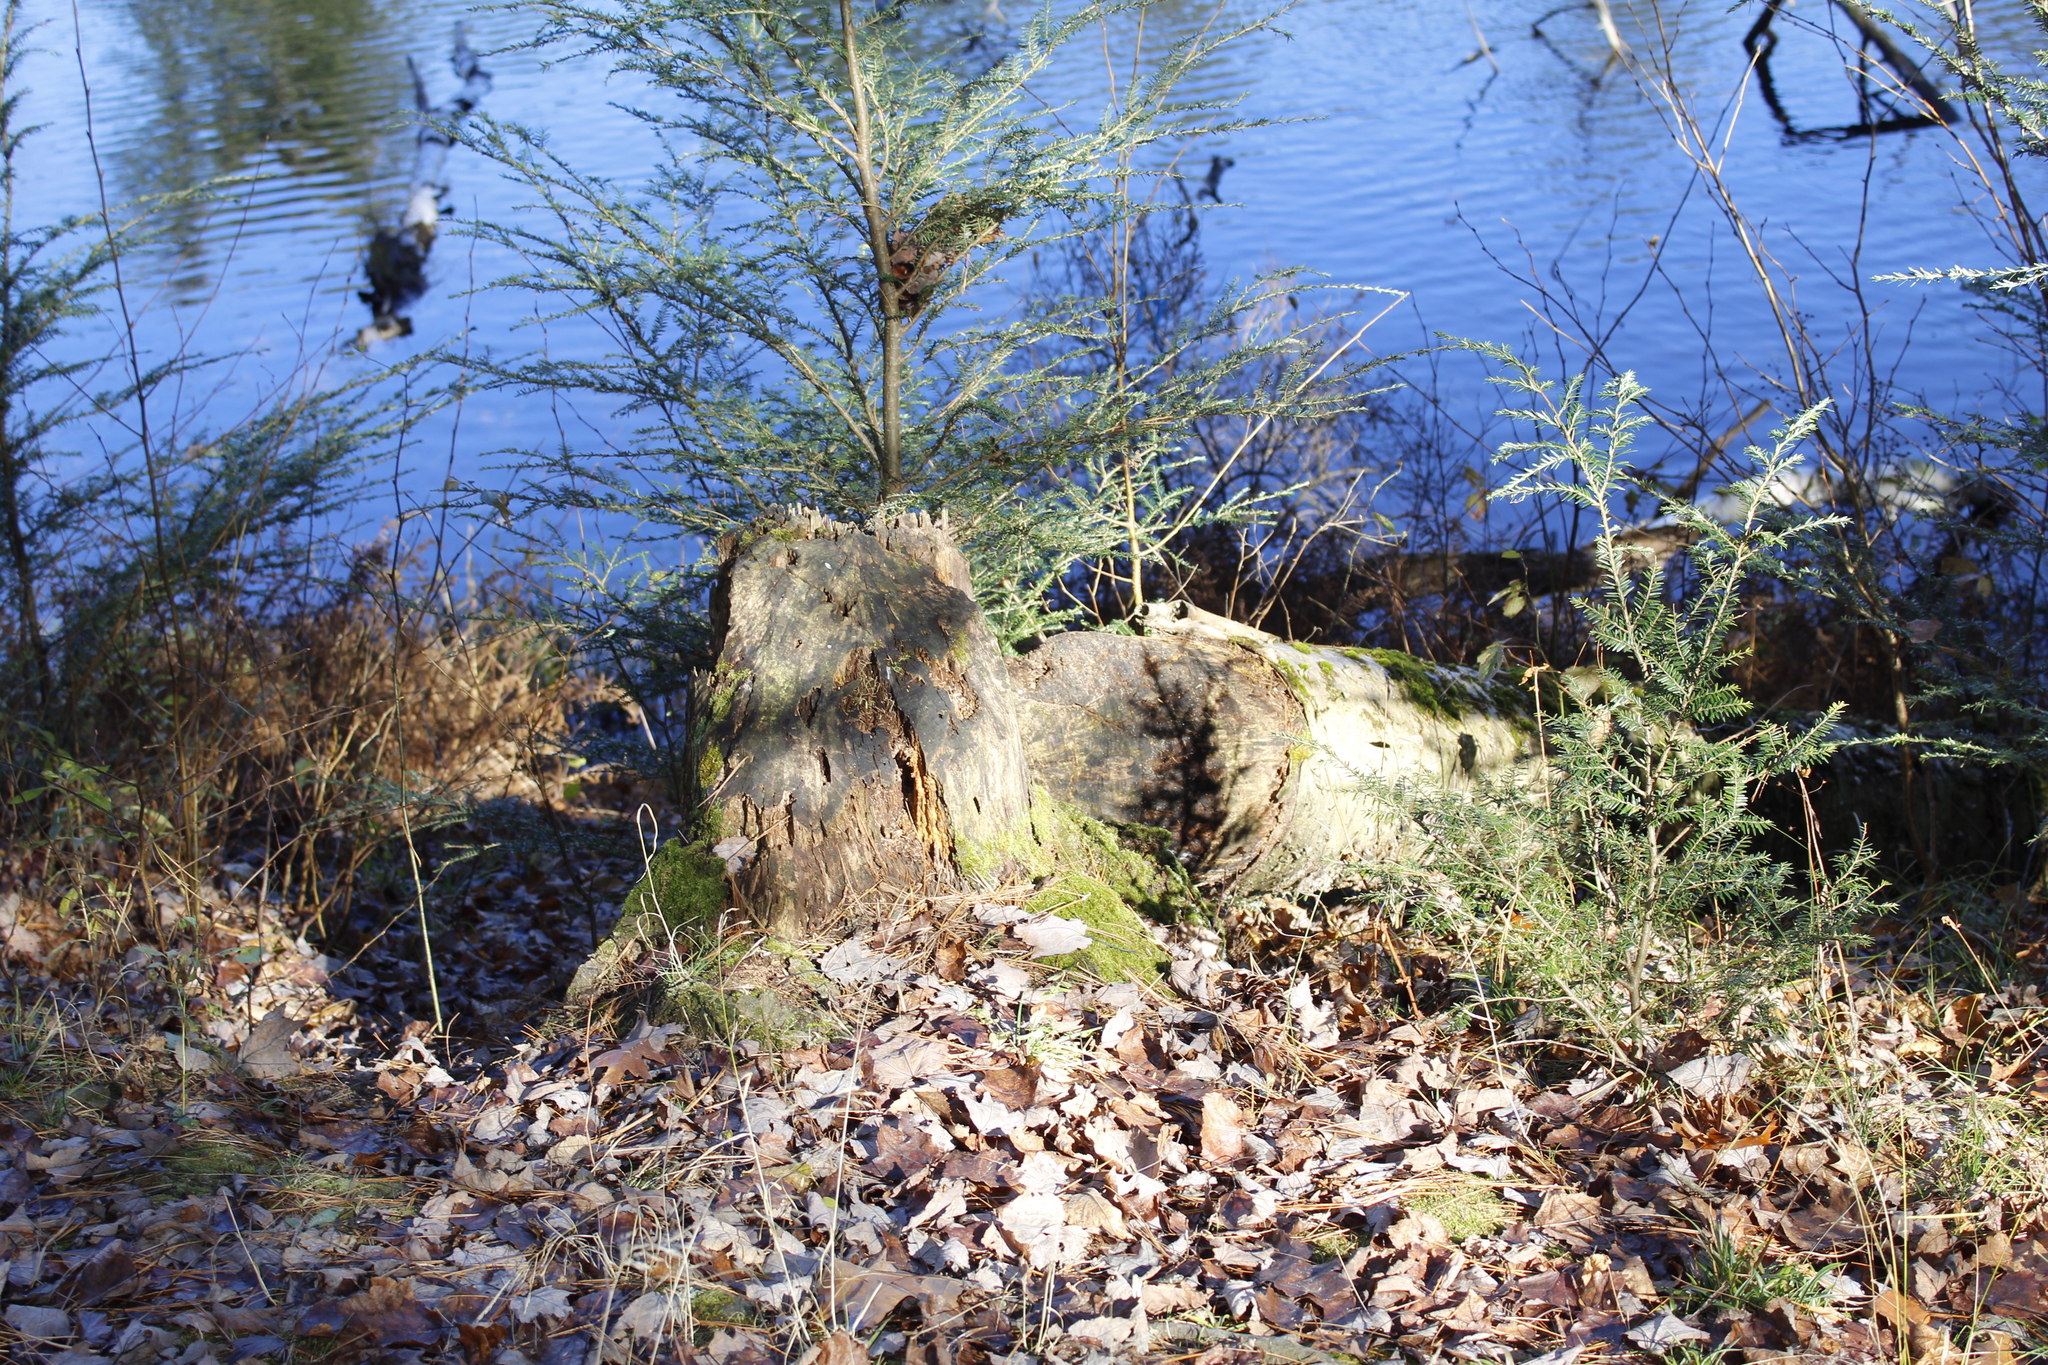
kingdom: Animalia
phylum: Chordata
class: Mammalia
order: Rodentia
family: Castoridae
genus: Castor
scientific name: Castor canadensis
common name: American beaver
